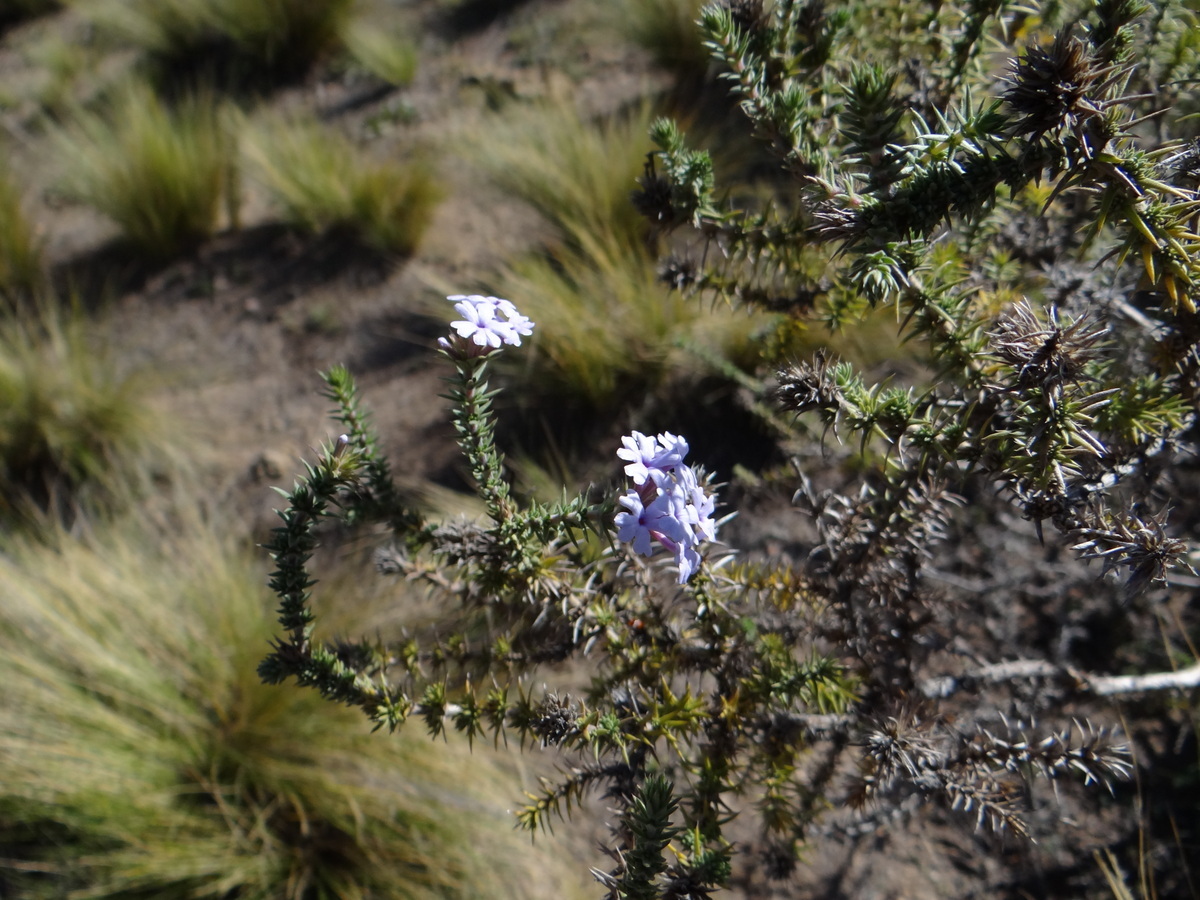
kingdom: Plantae
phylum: Tracheophyta
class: Magnoliopsida
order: Lamiales
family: Verbenaceae
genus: Junellia
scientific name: Junellia juniperina
